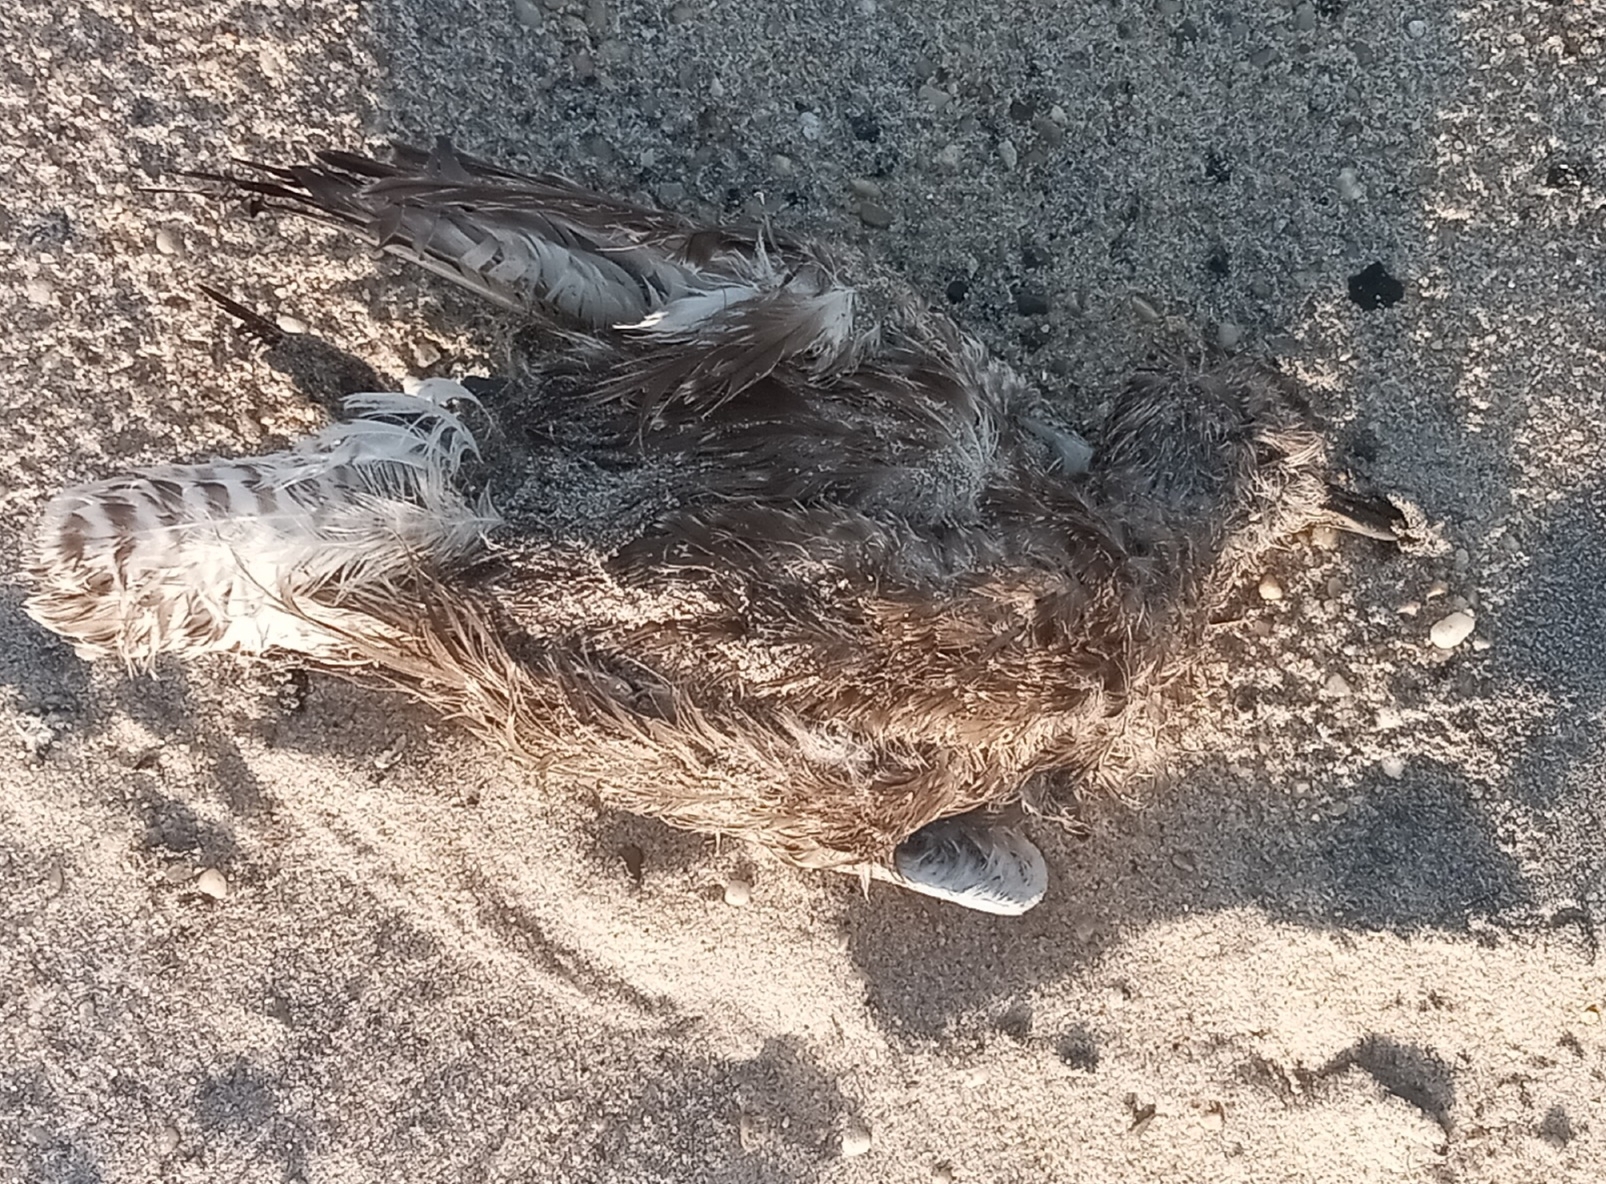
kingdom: Animalia
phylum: Chordata
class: Aves
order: Charadriiformes
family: Charadriidae
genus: Pluvialis
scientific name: Pluvialis squatarola
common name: Grey plover
